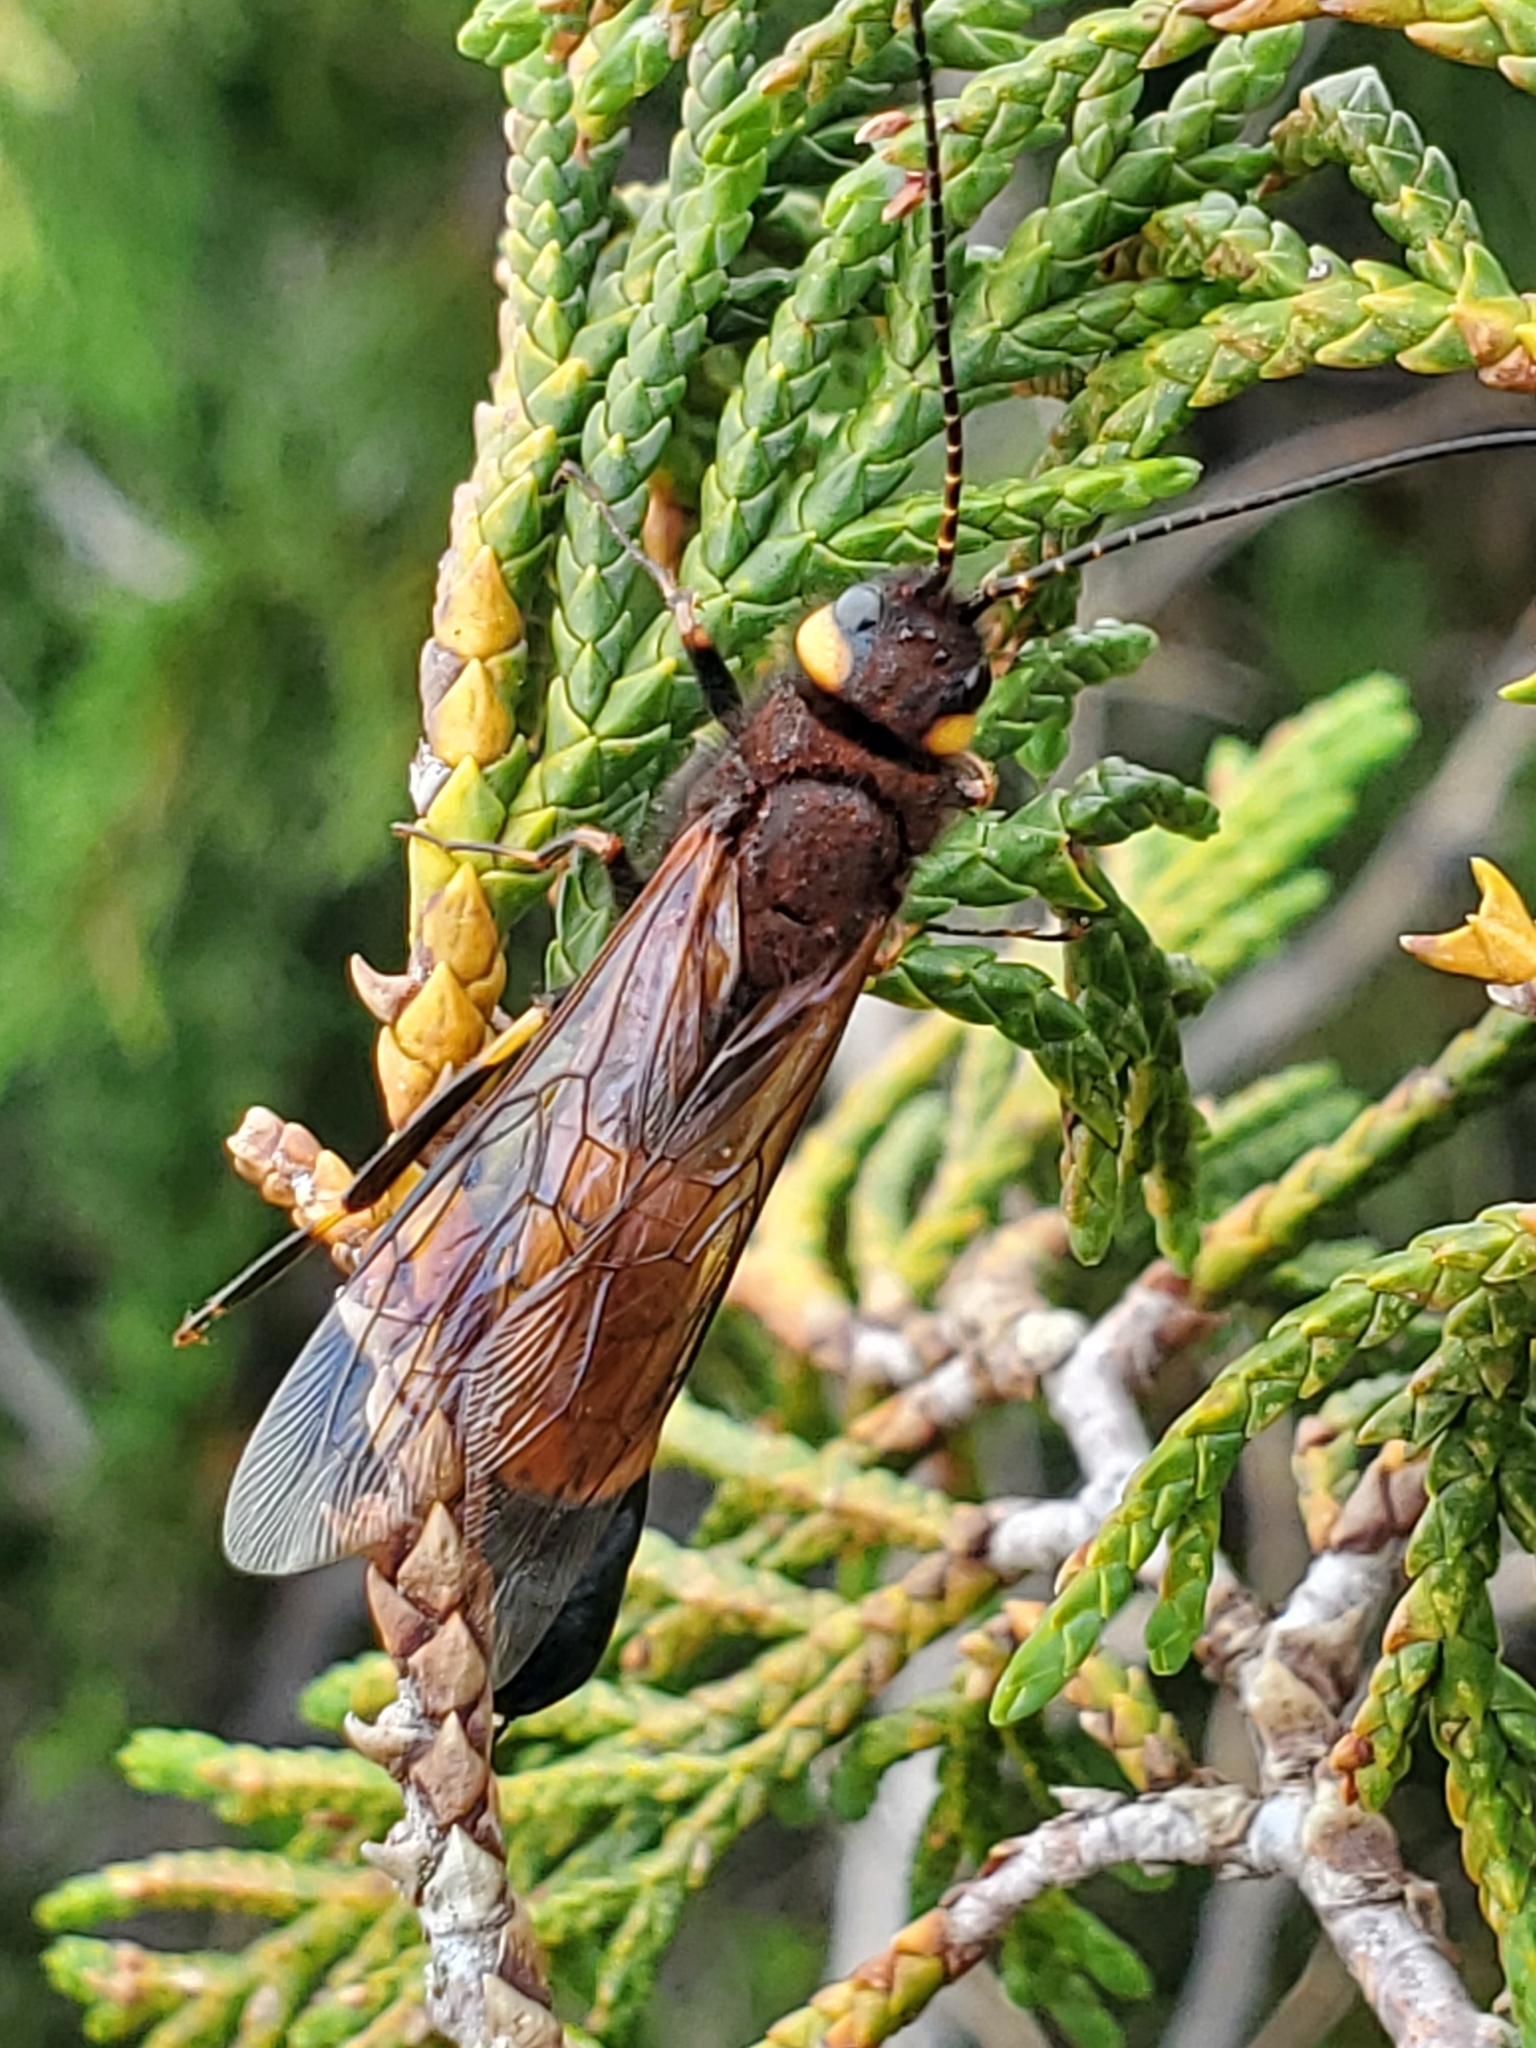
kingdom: Animalia
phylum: Arthropoda
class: Insecta
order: Hymenoptera
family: Siricidae
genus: Urocerus
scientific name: Urocerus flavicornis
